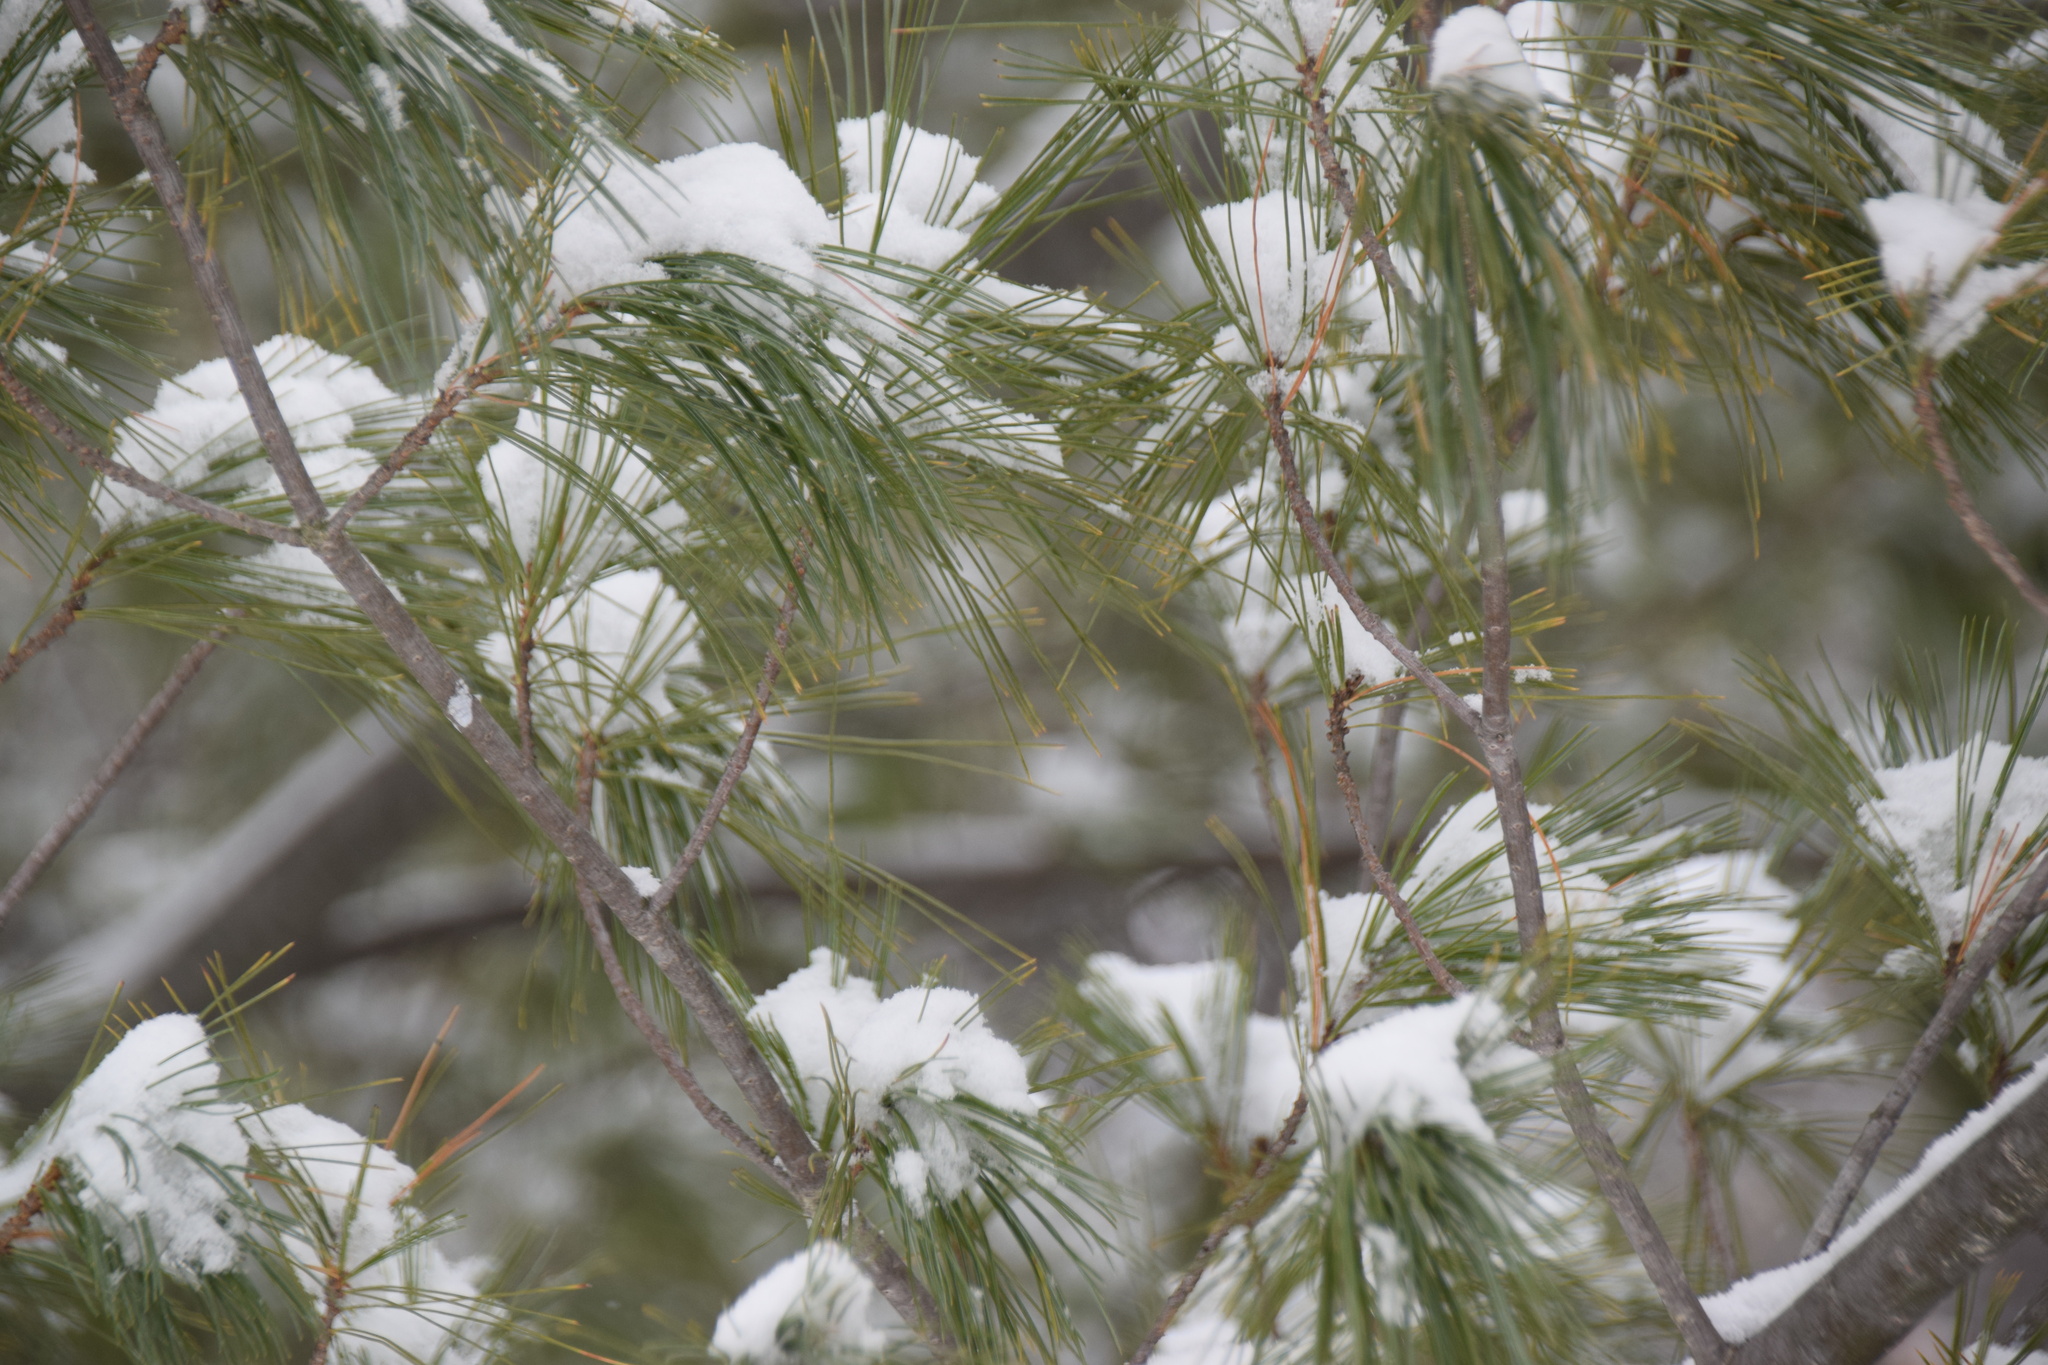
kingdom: Plantae
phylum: Tracheophyta
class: Pinopsida
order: Pinales
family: Pinaceae
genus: Pinus
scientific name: Pinus strobus
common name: Weymouth pine
